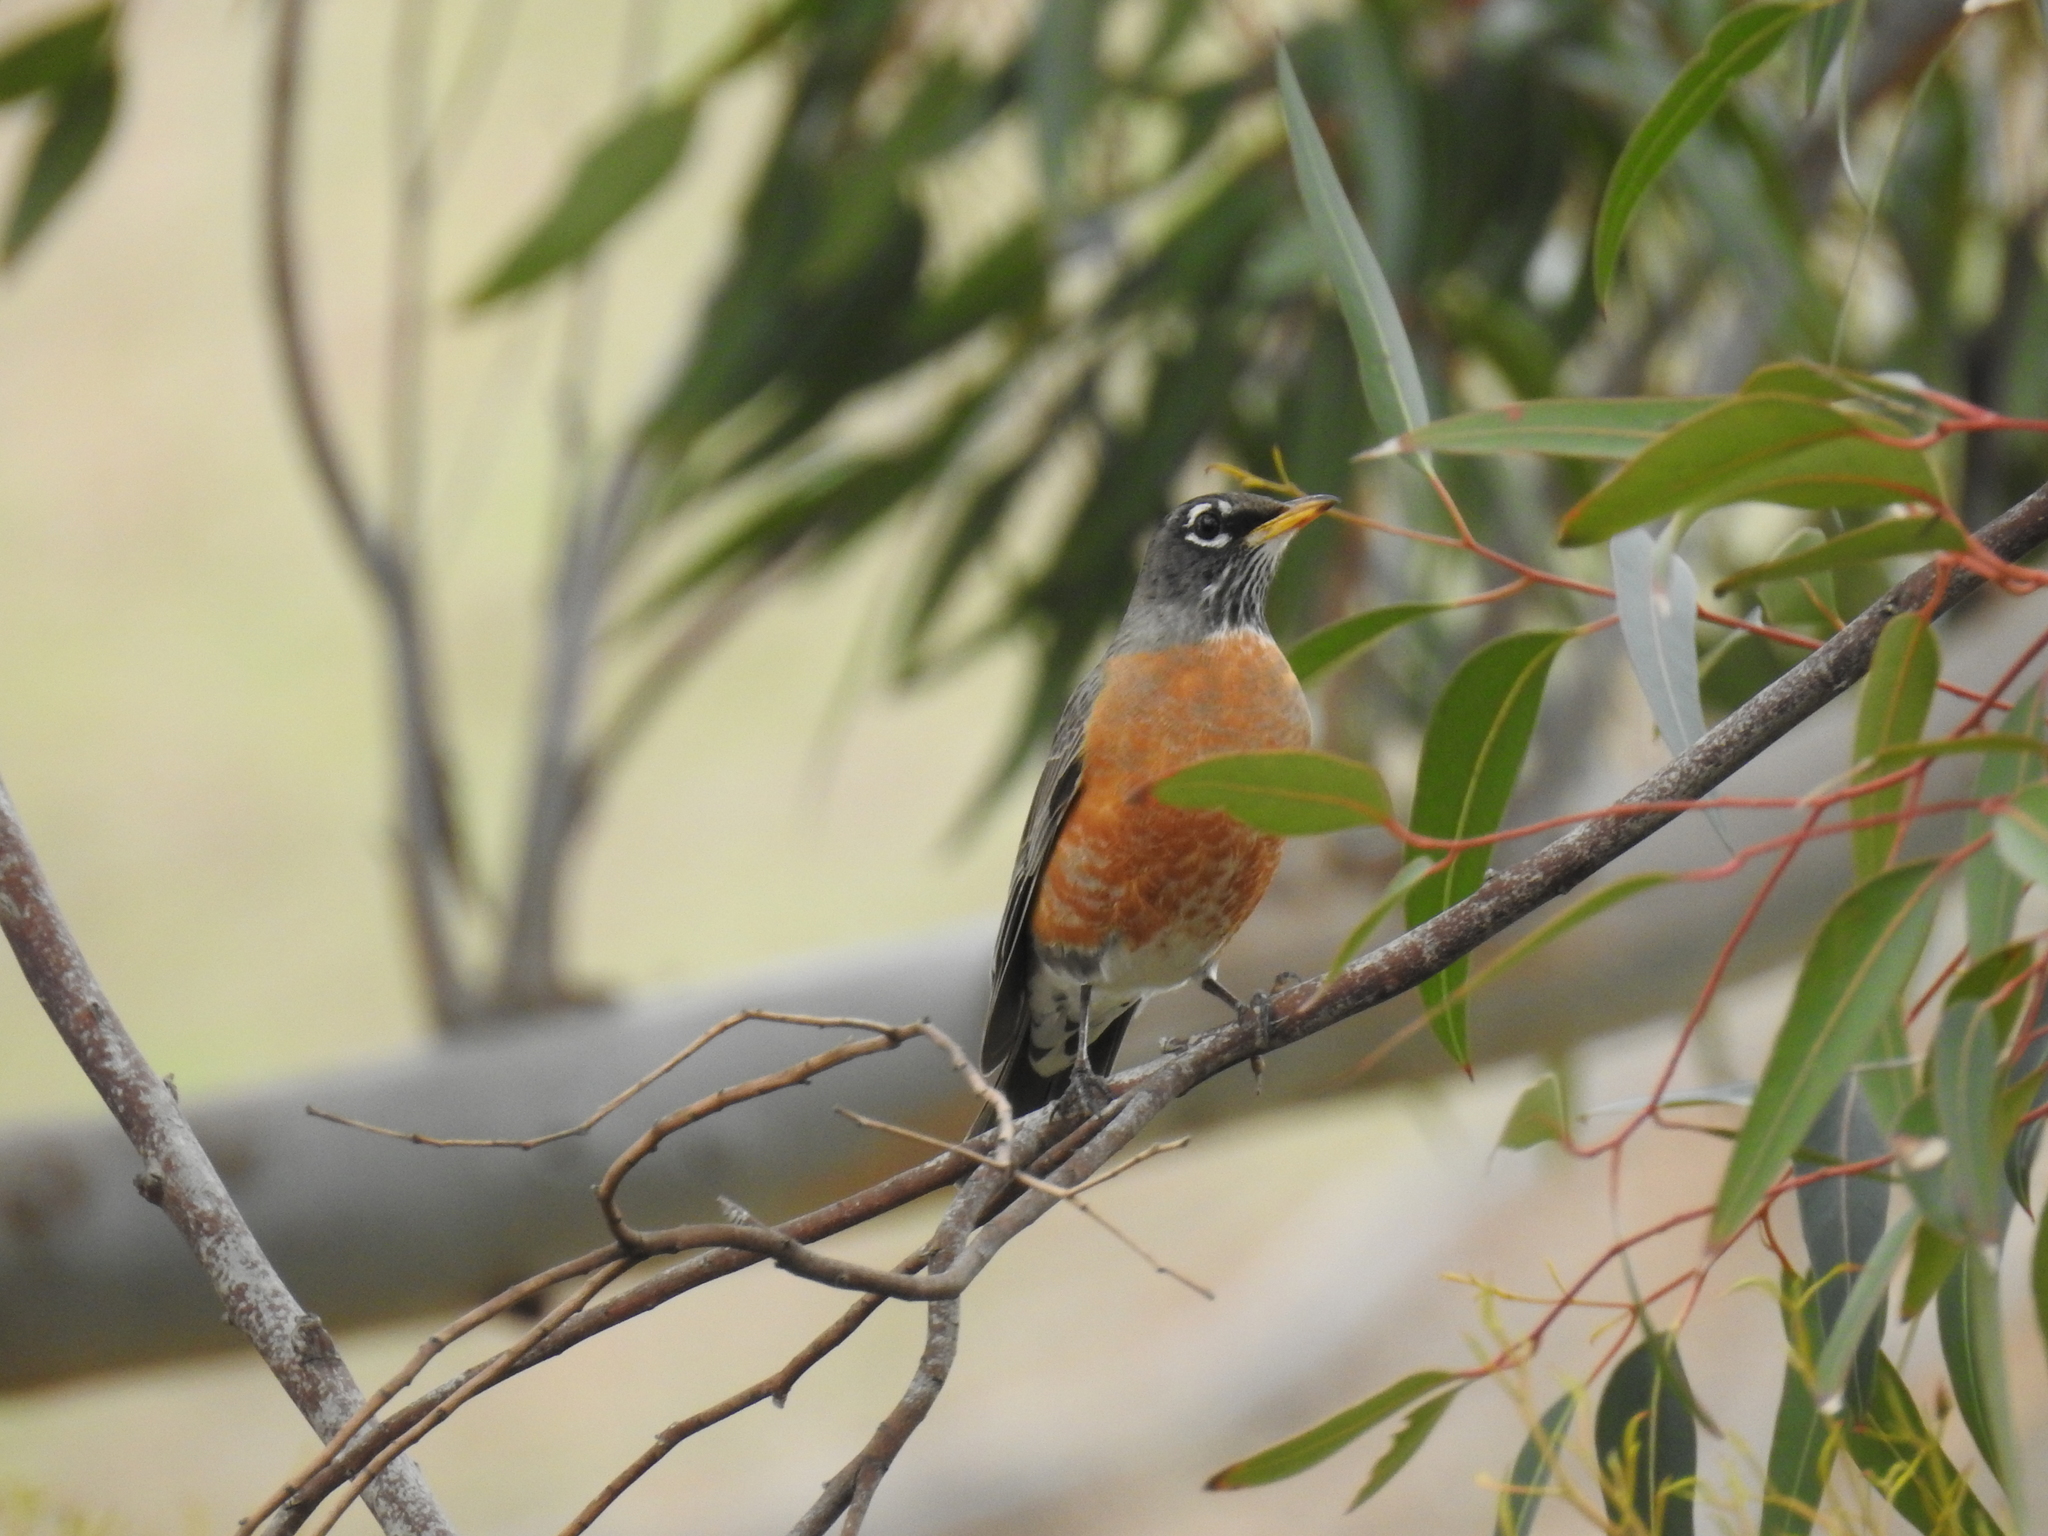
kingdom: Animalia
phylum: Chordata
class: Aves
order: Passeriformes
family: Turdidae
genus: Turdus
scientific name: Turdus migratorius
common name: American robin
